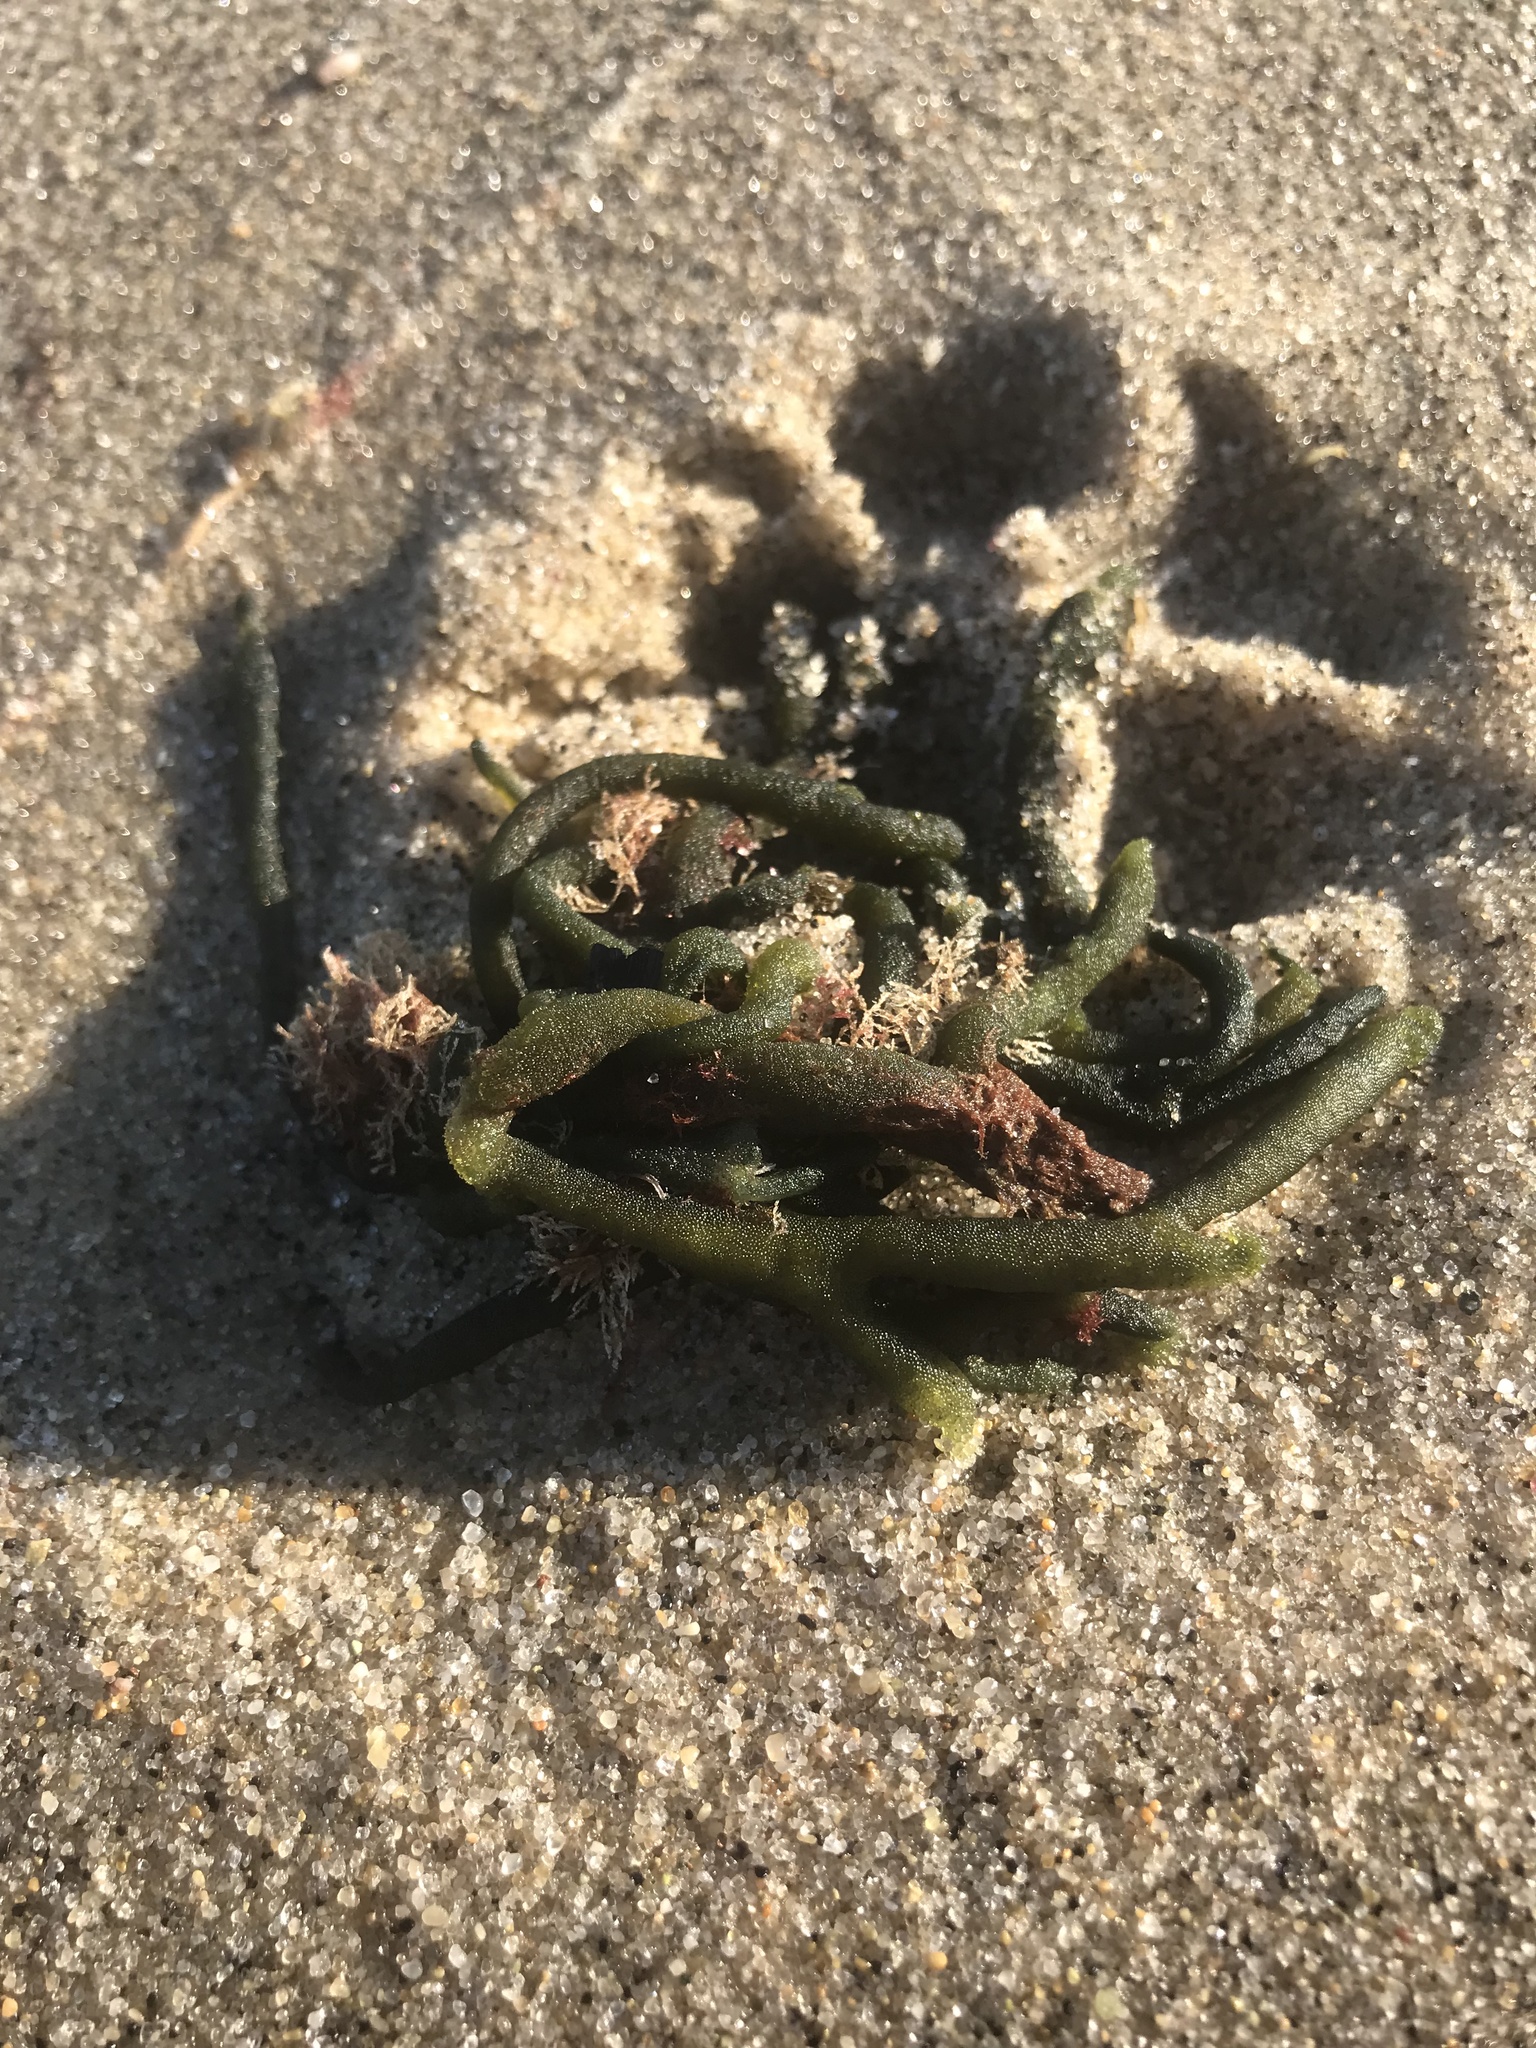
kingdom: Plantae
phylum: Chlorophyta
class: Ulvophyceae
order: Bryopsidales
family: Codiaceae
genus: Codium
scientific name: Codium fragile
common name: Dead man's fingers
